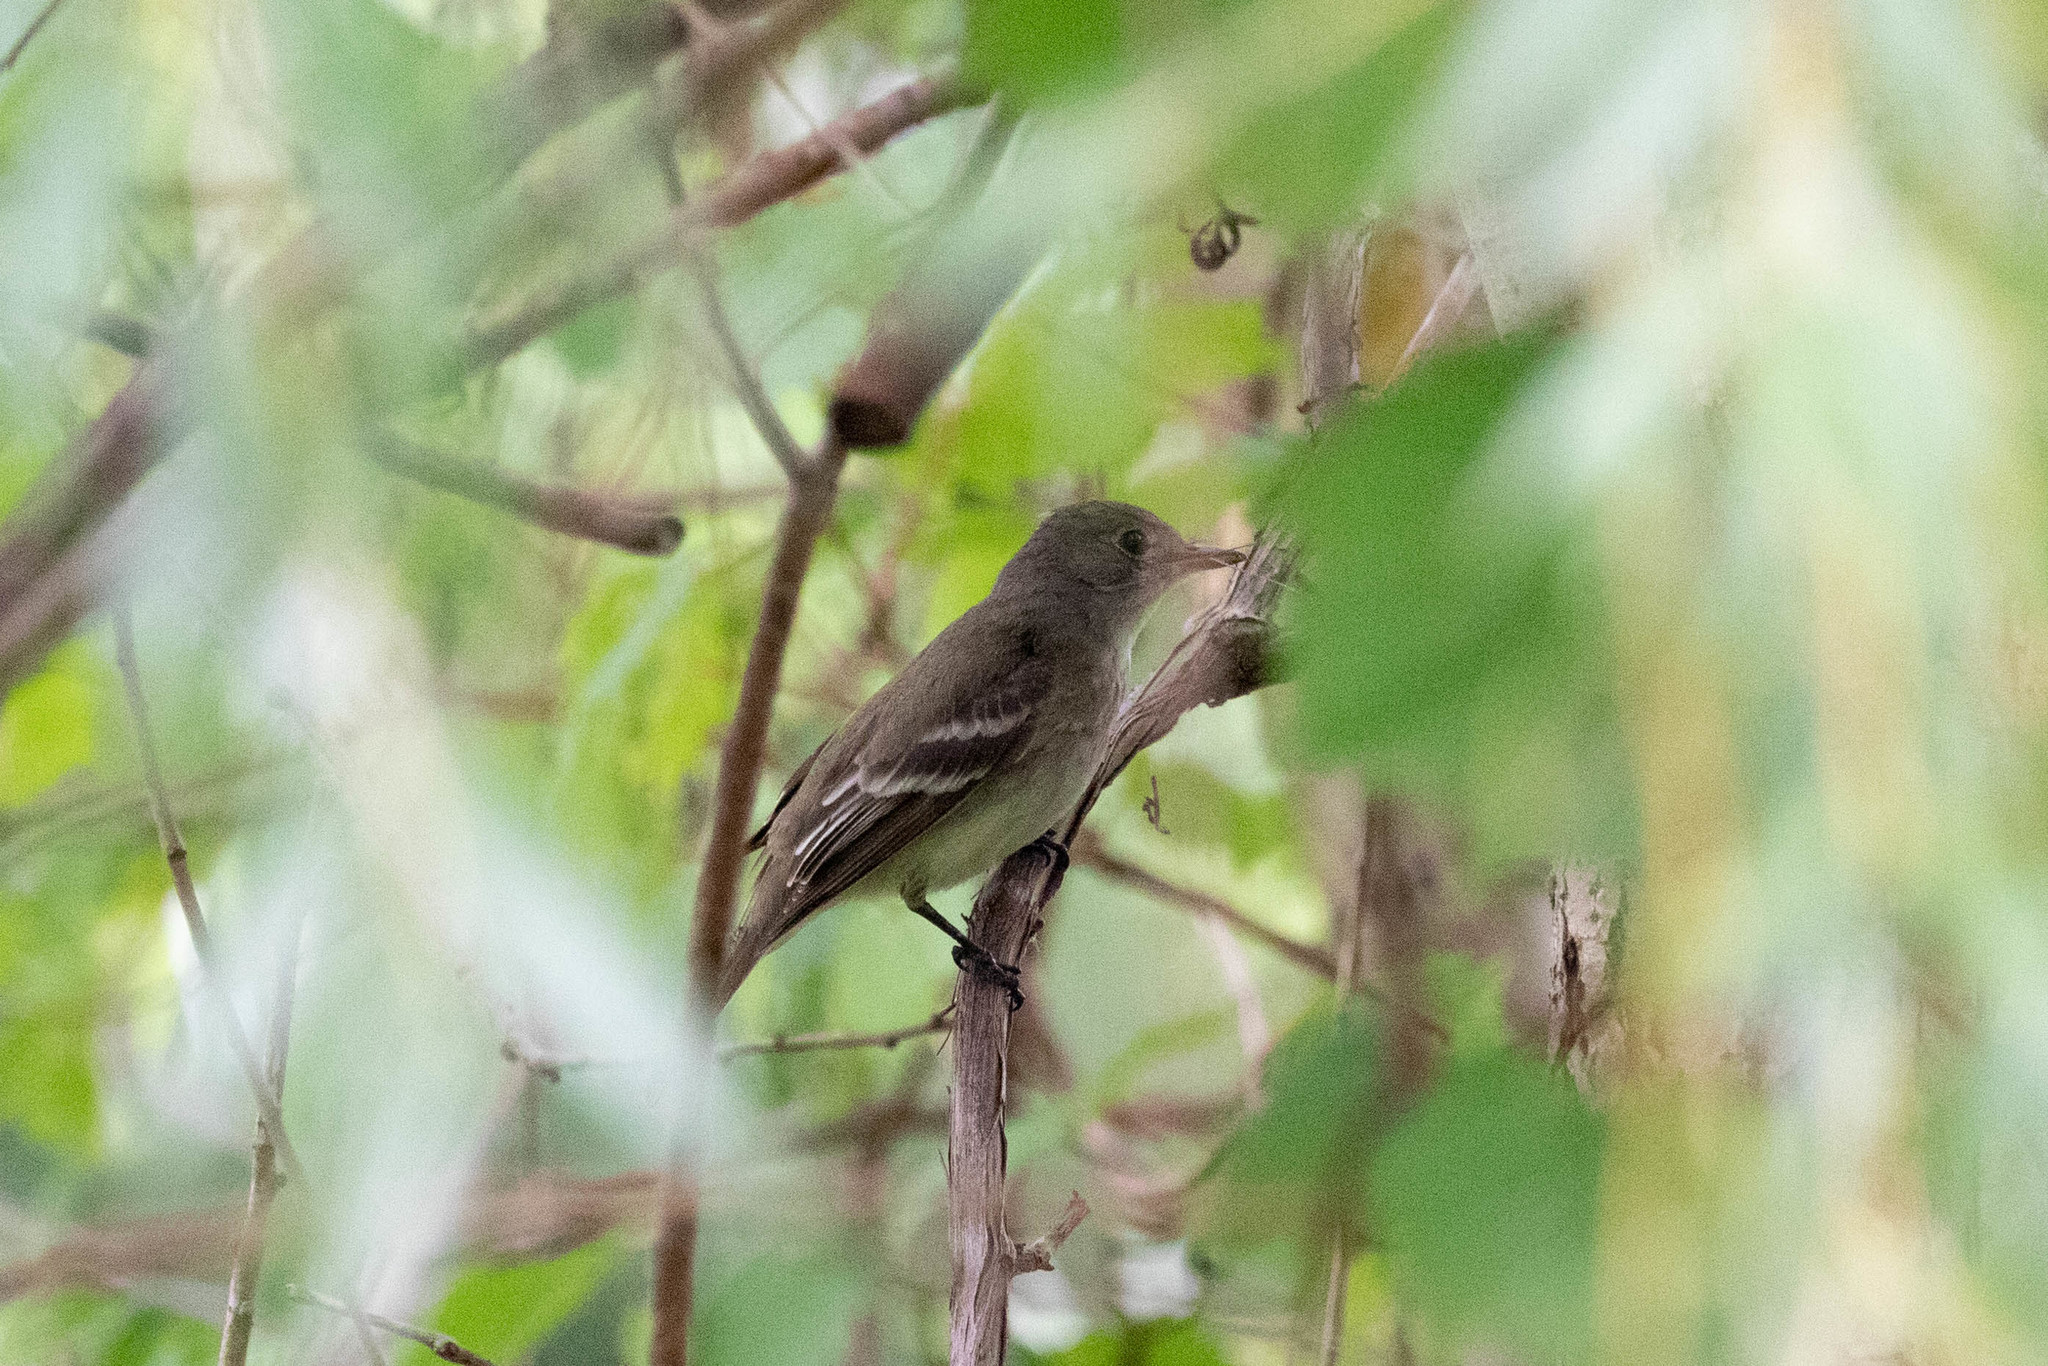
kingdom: Animalia
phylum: Chordata
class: Aves
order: Passeriformes
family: Tyrannidae
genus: Empidonax
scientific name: Empidonax traillii
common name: Willow flycatcher
